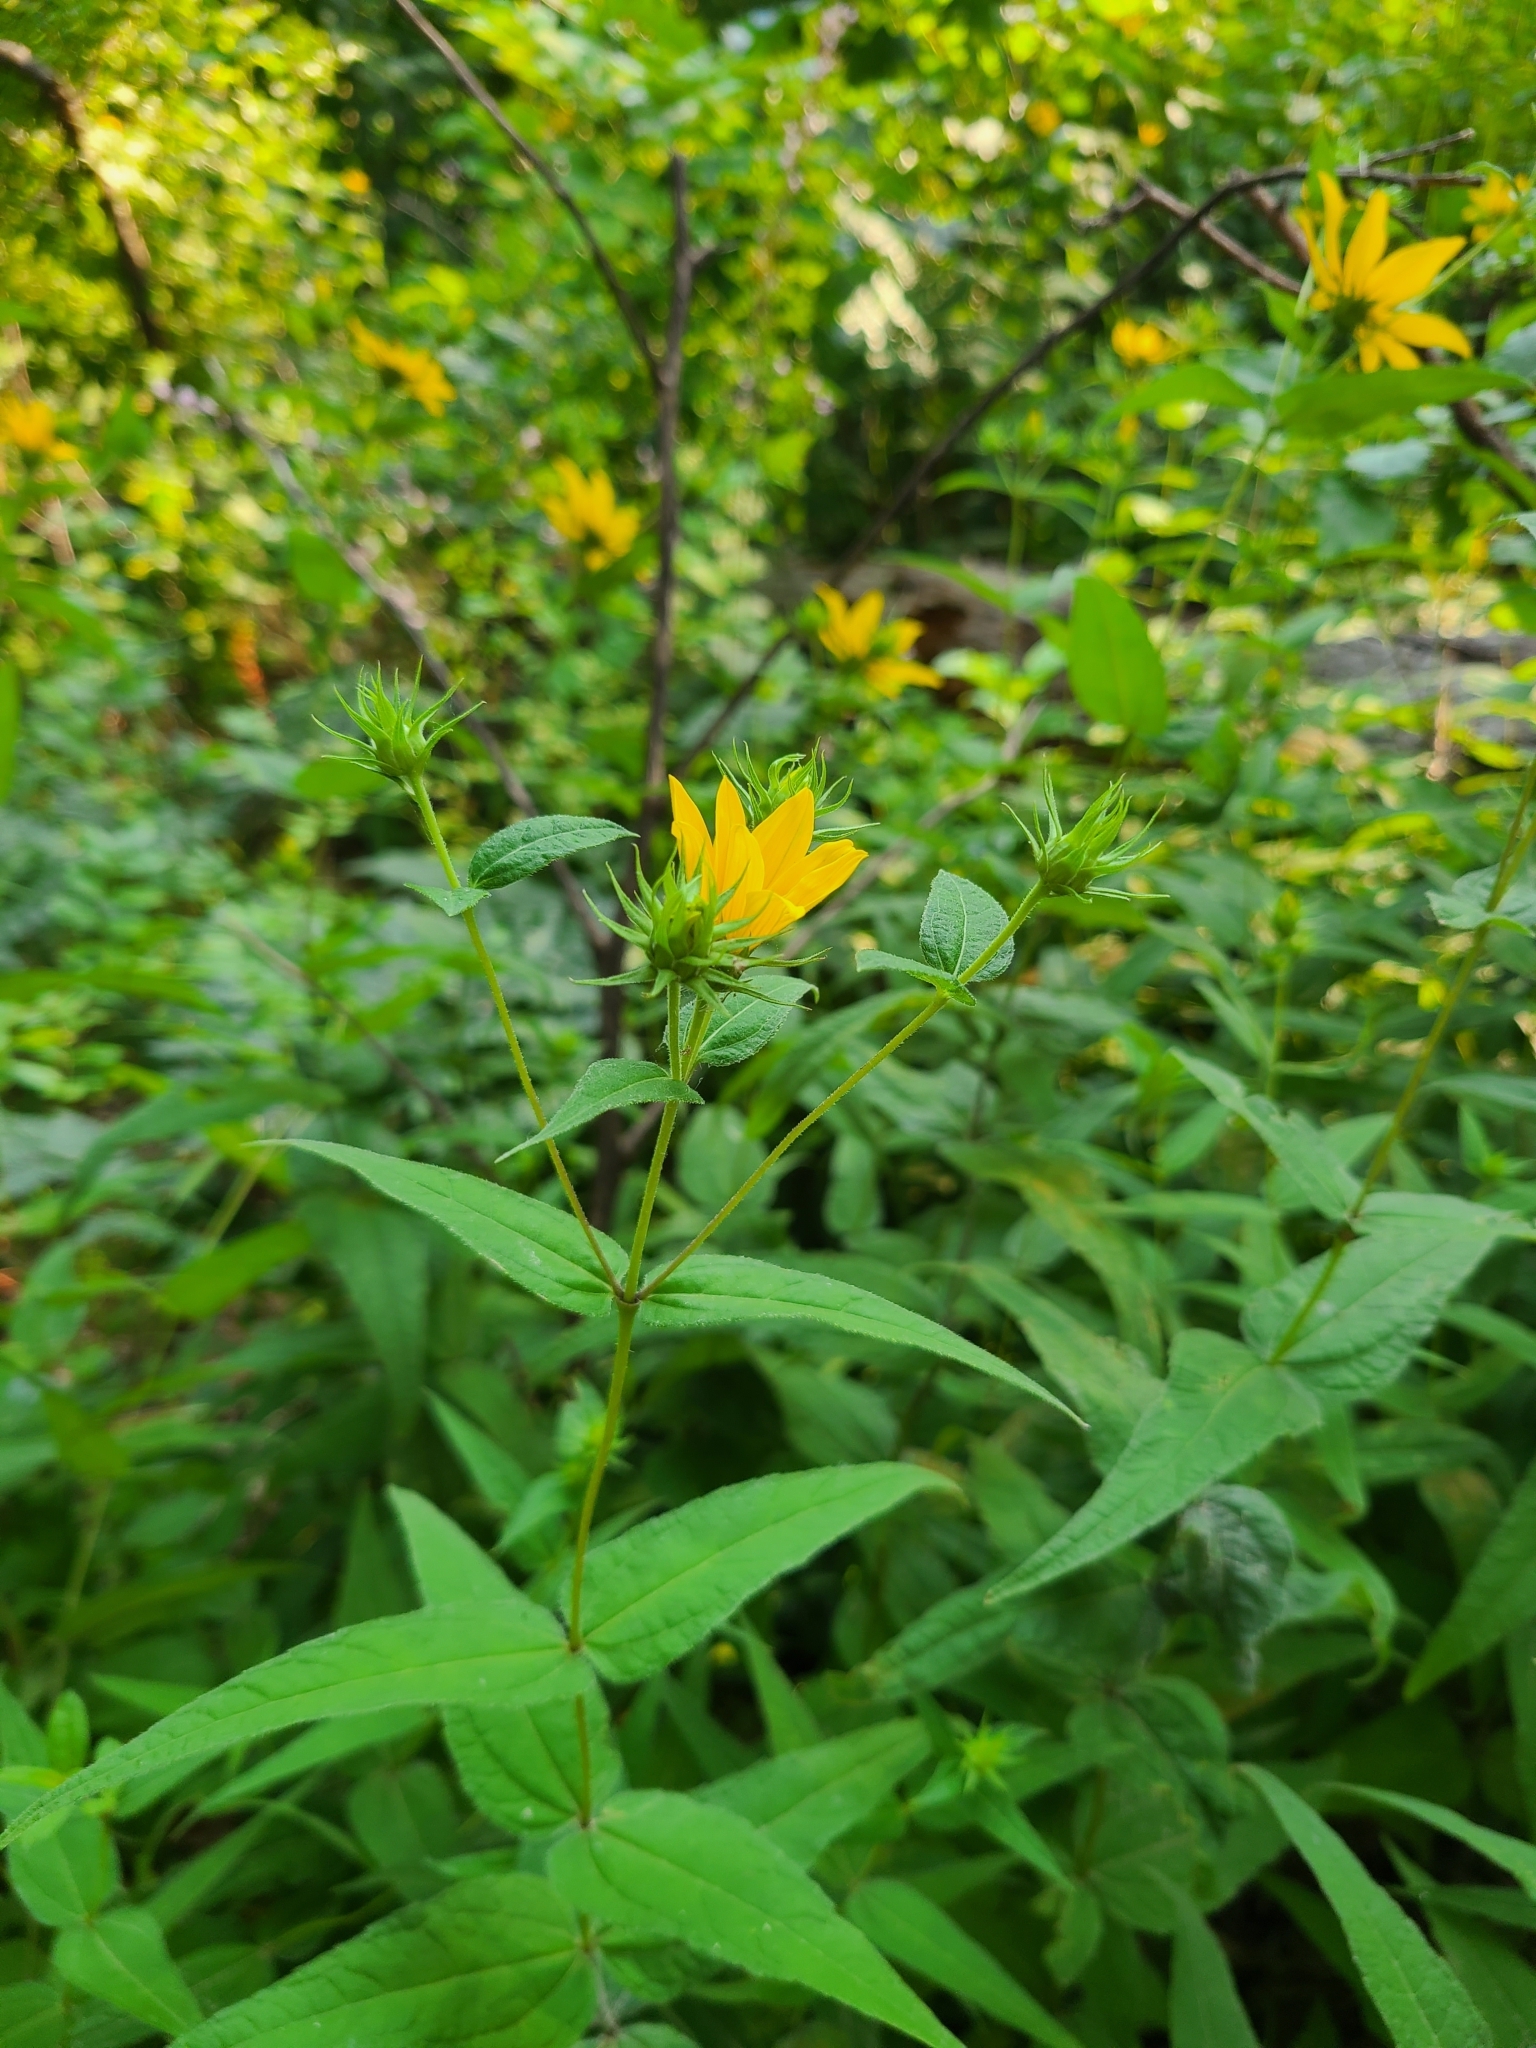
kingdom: Plantae
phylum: Tracheophyta
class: Magnoliopsida
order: Asterales
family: Asteraceae
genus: Helianthus
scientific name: Helianthus divaricatus
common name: Divergent sunflower
